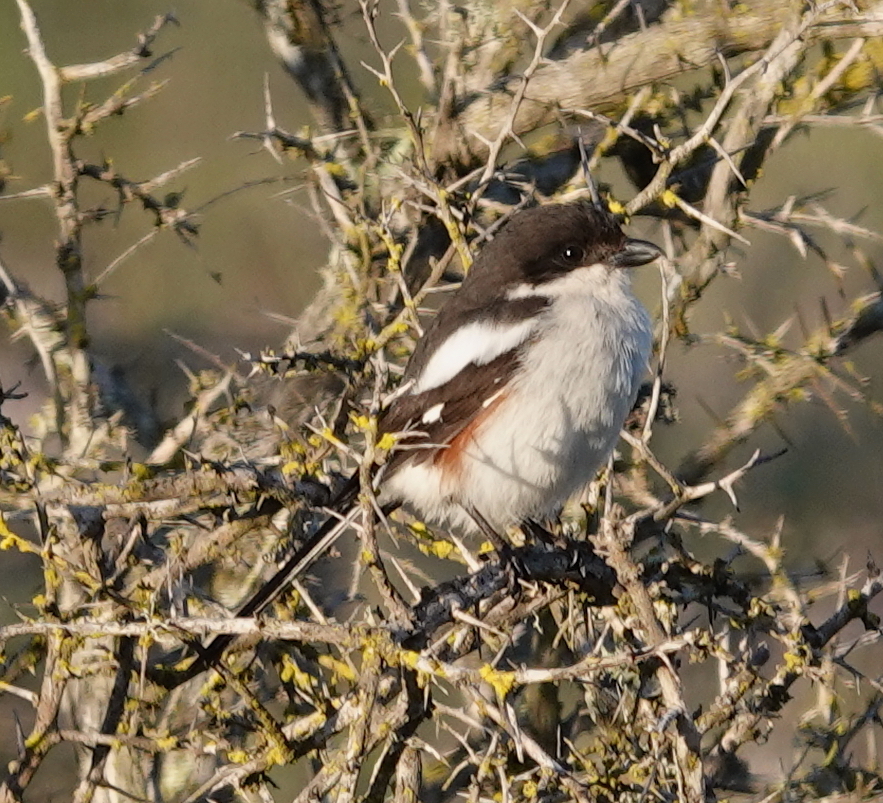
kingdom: Animalia
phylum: Chordata
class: Aves
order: Passeriformes
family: Laniidae
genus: Lanius
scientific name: Lanius collaris
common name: Southern fiscal
